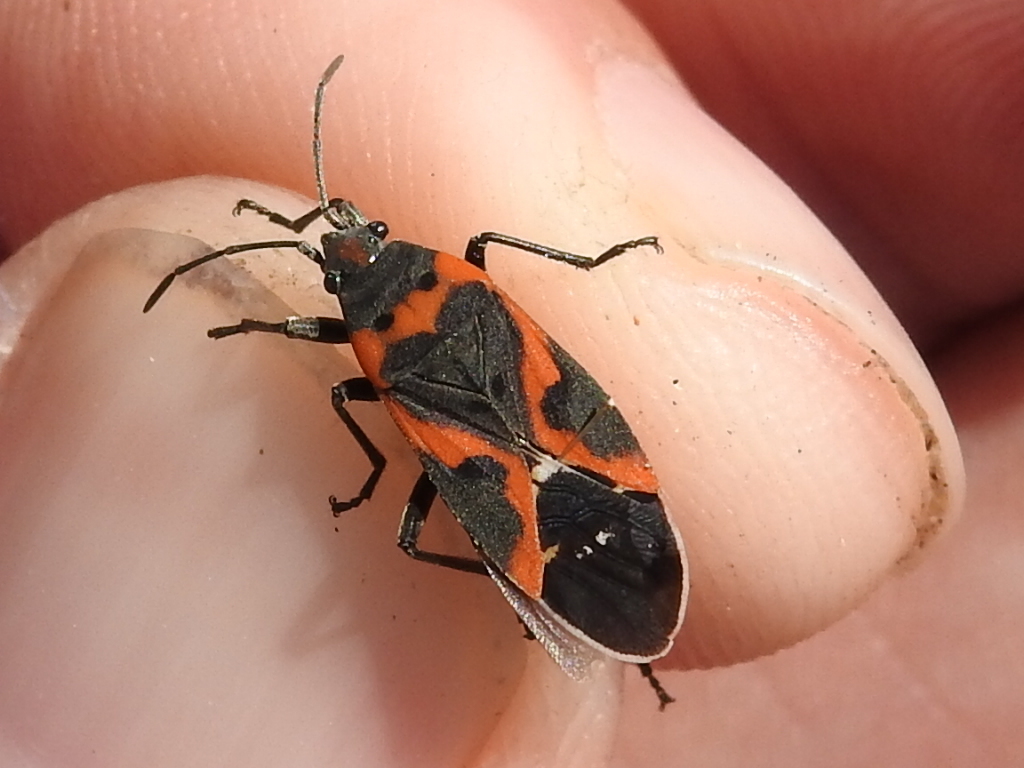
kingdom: Animalia
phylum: Arthropoda
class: Insecta
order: Hemiptera
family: Lygaeidae
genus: Lygaeus
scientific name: Lygaeus kalmii
